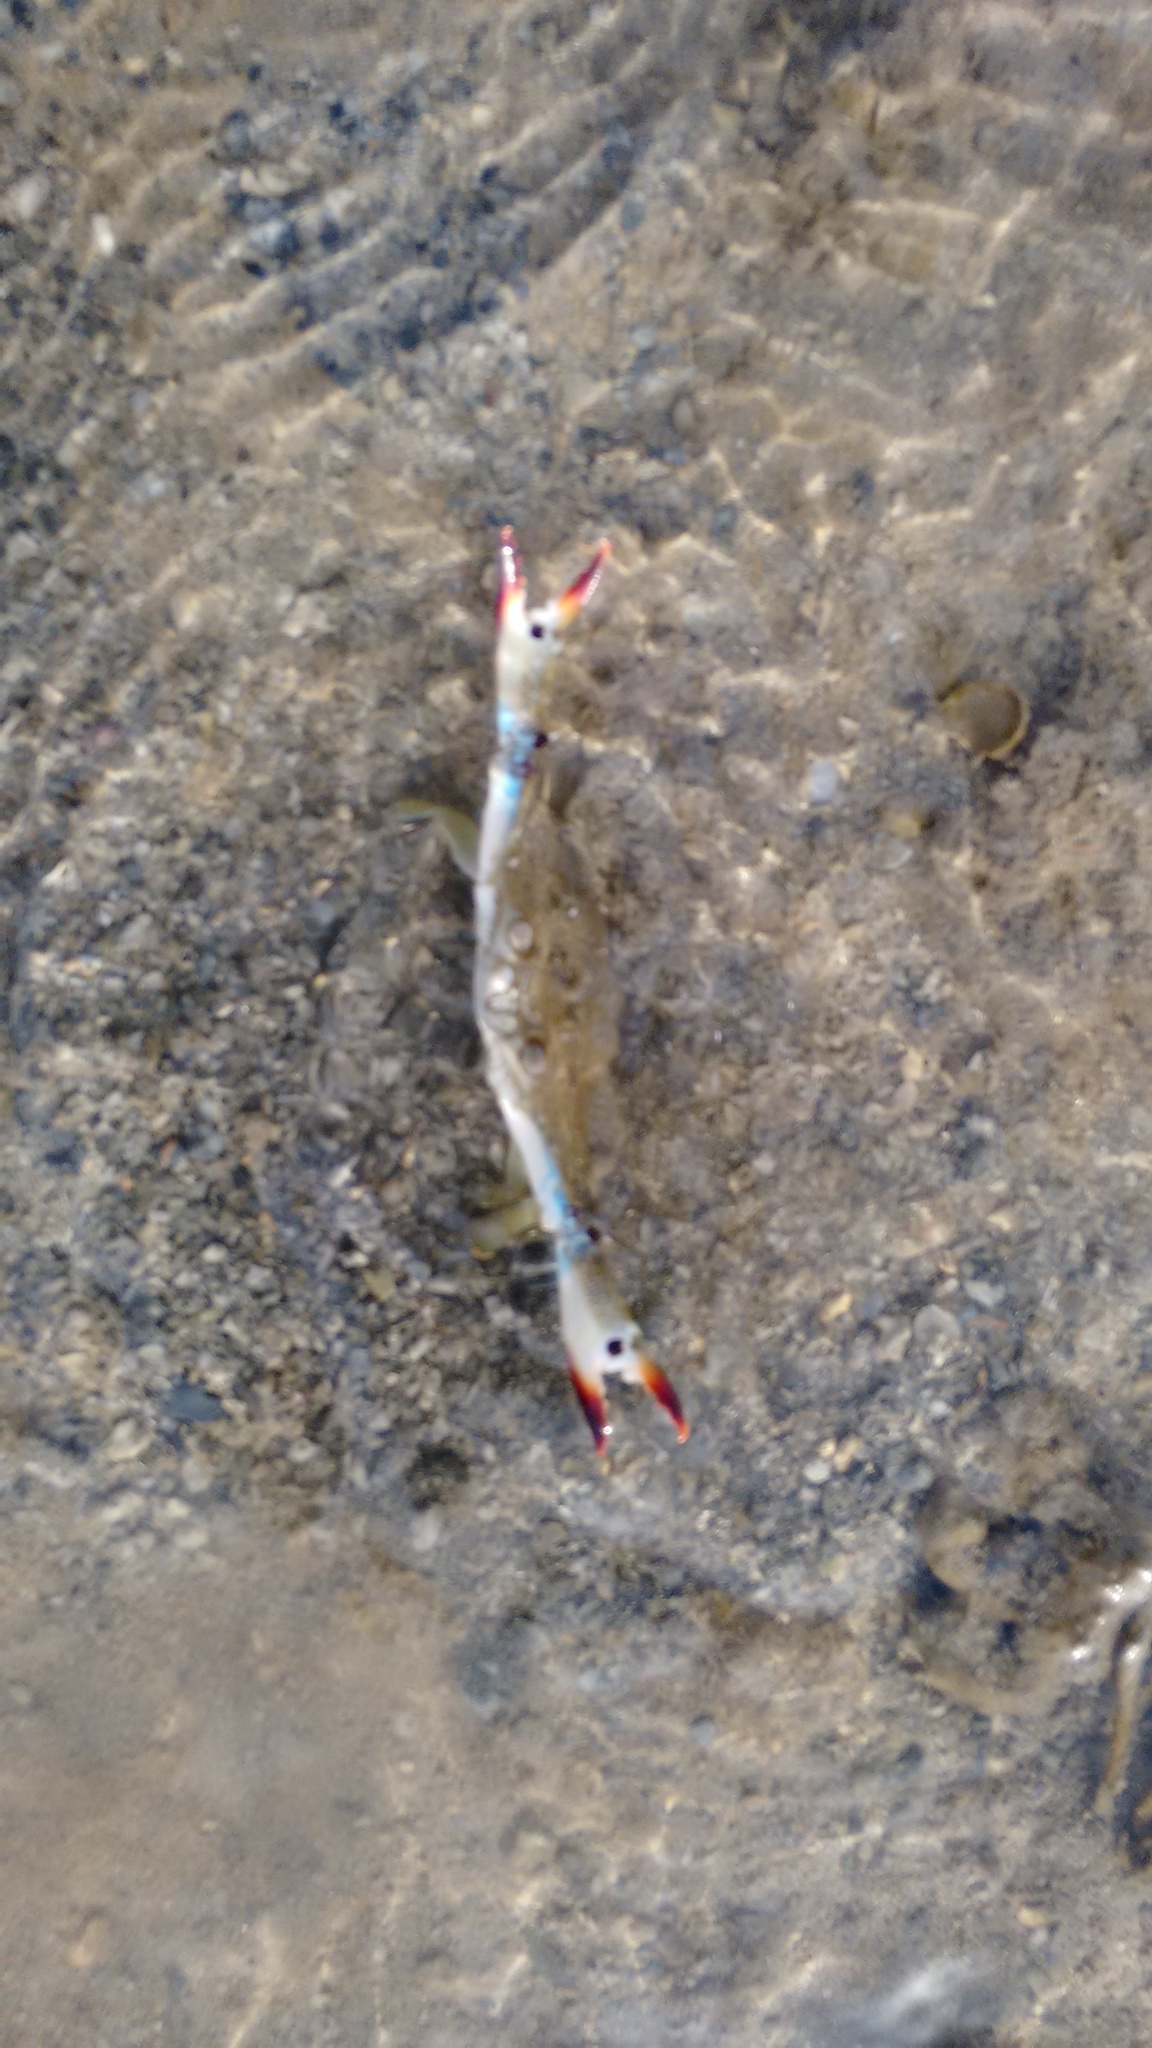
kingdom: Animalia
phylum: Arthropoda
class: Malacostraca
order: Decapoda
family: Portunidae
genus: Portunus
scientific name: Portunus pelagicus
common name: Blue swimming crab
